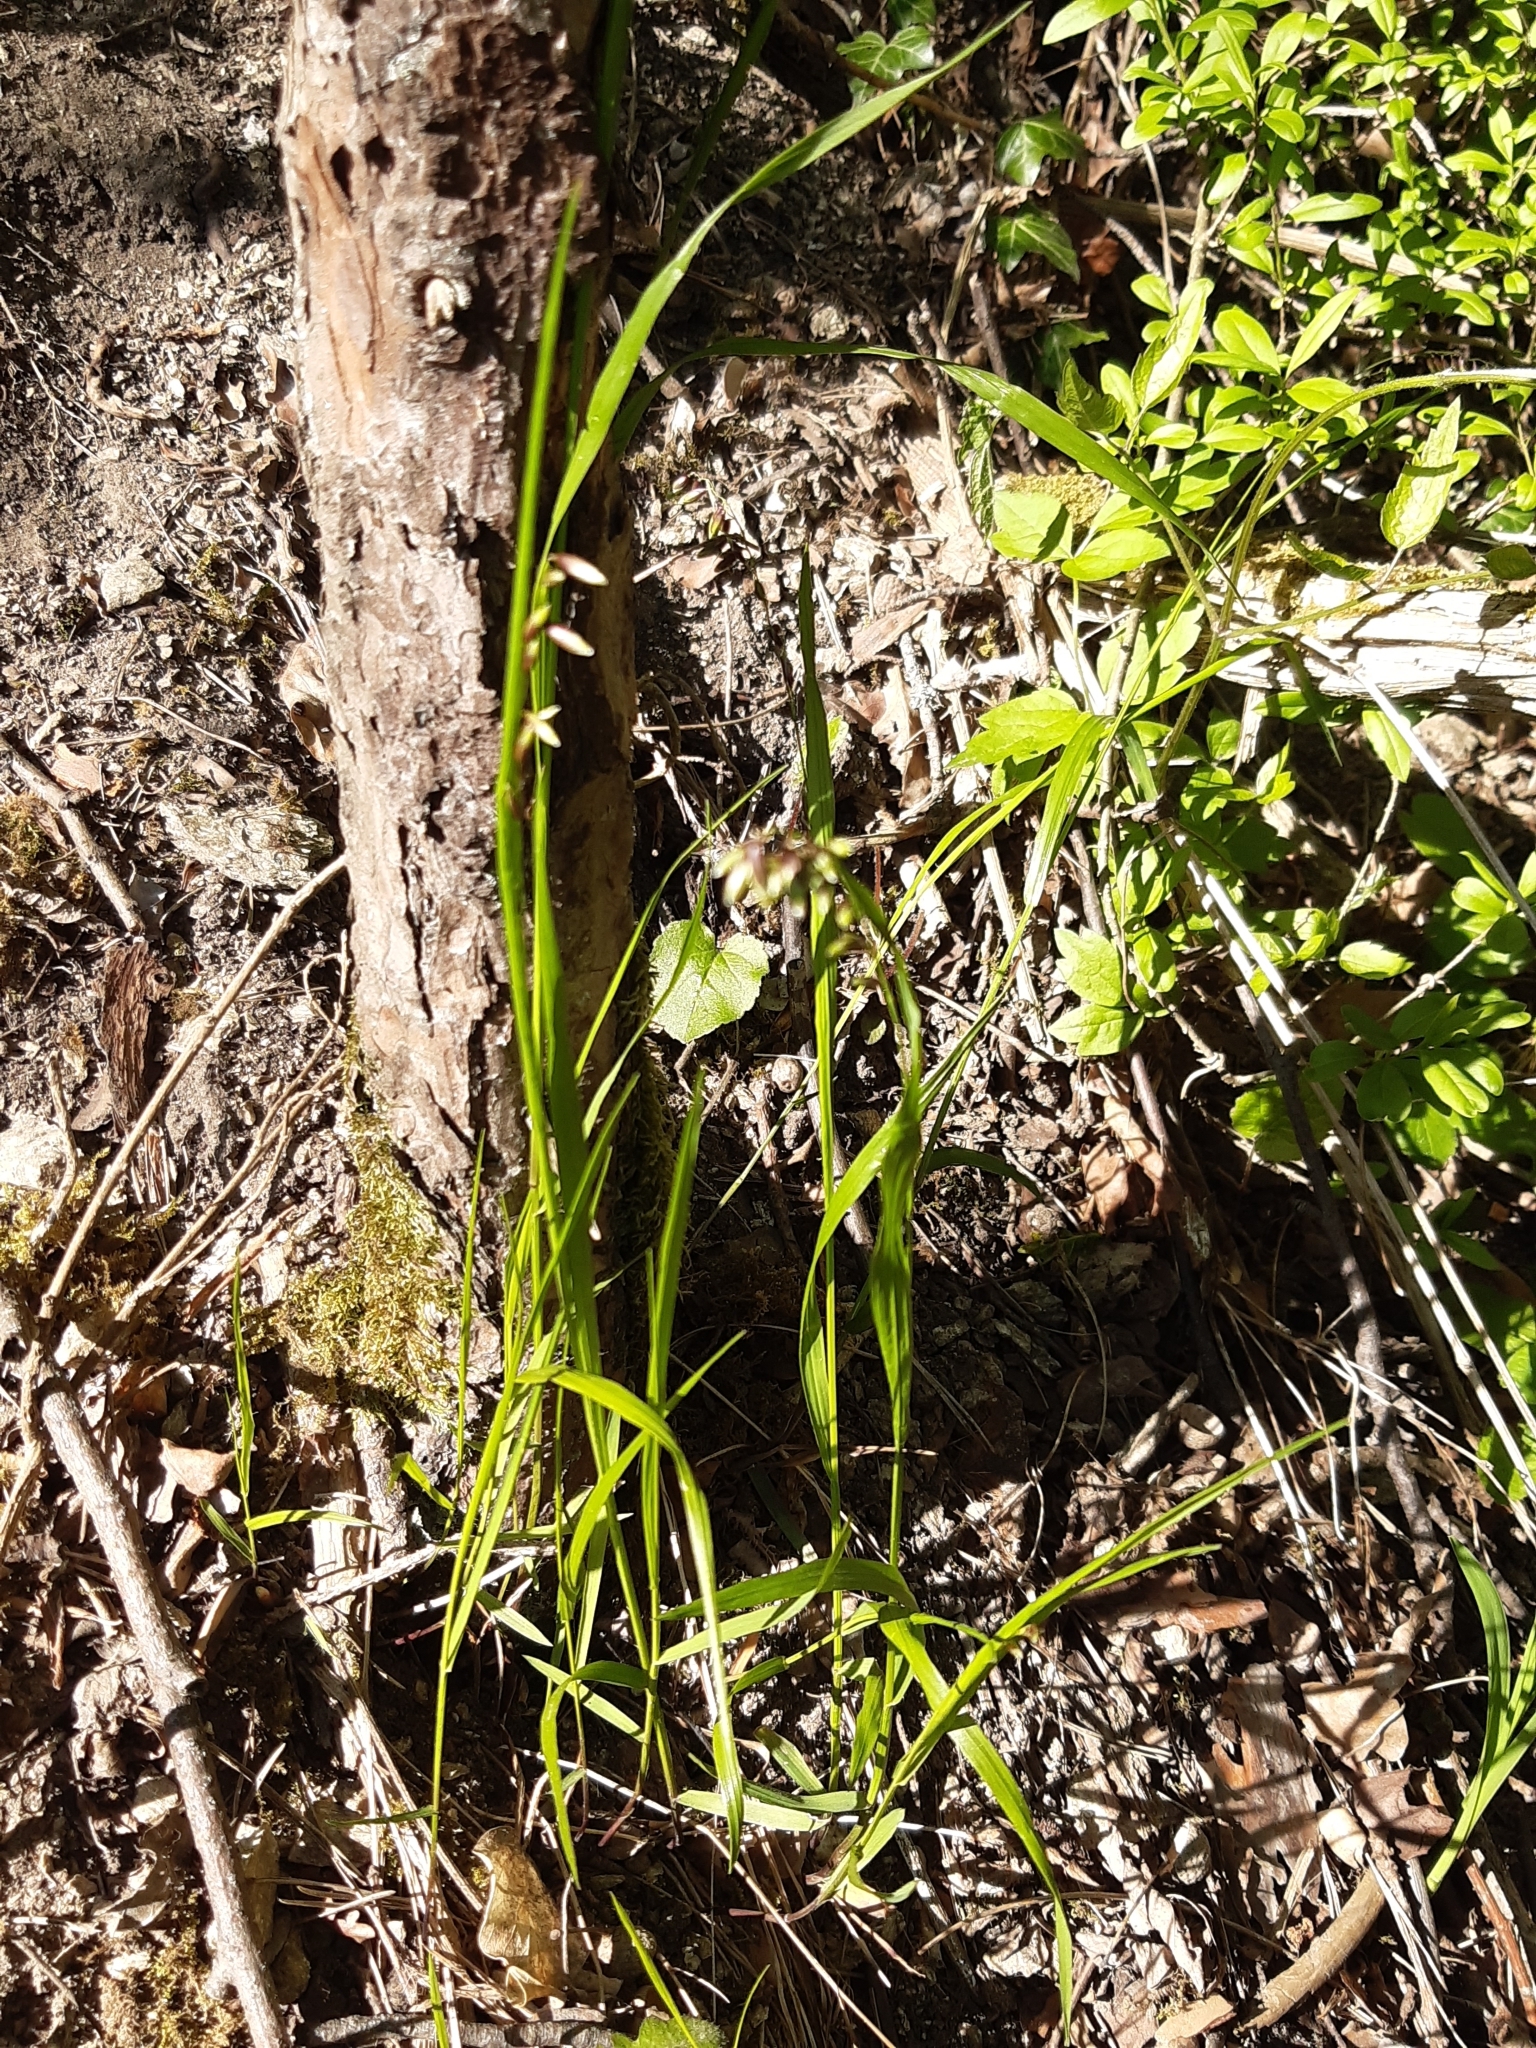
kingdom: Plantae
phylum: Tracheophyta
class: Liliopsida
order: Poales
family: Poaceae
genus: Melica
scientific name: Melica nutans
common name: Mountain melick
